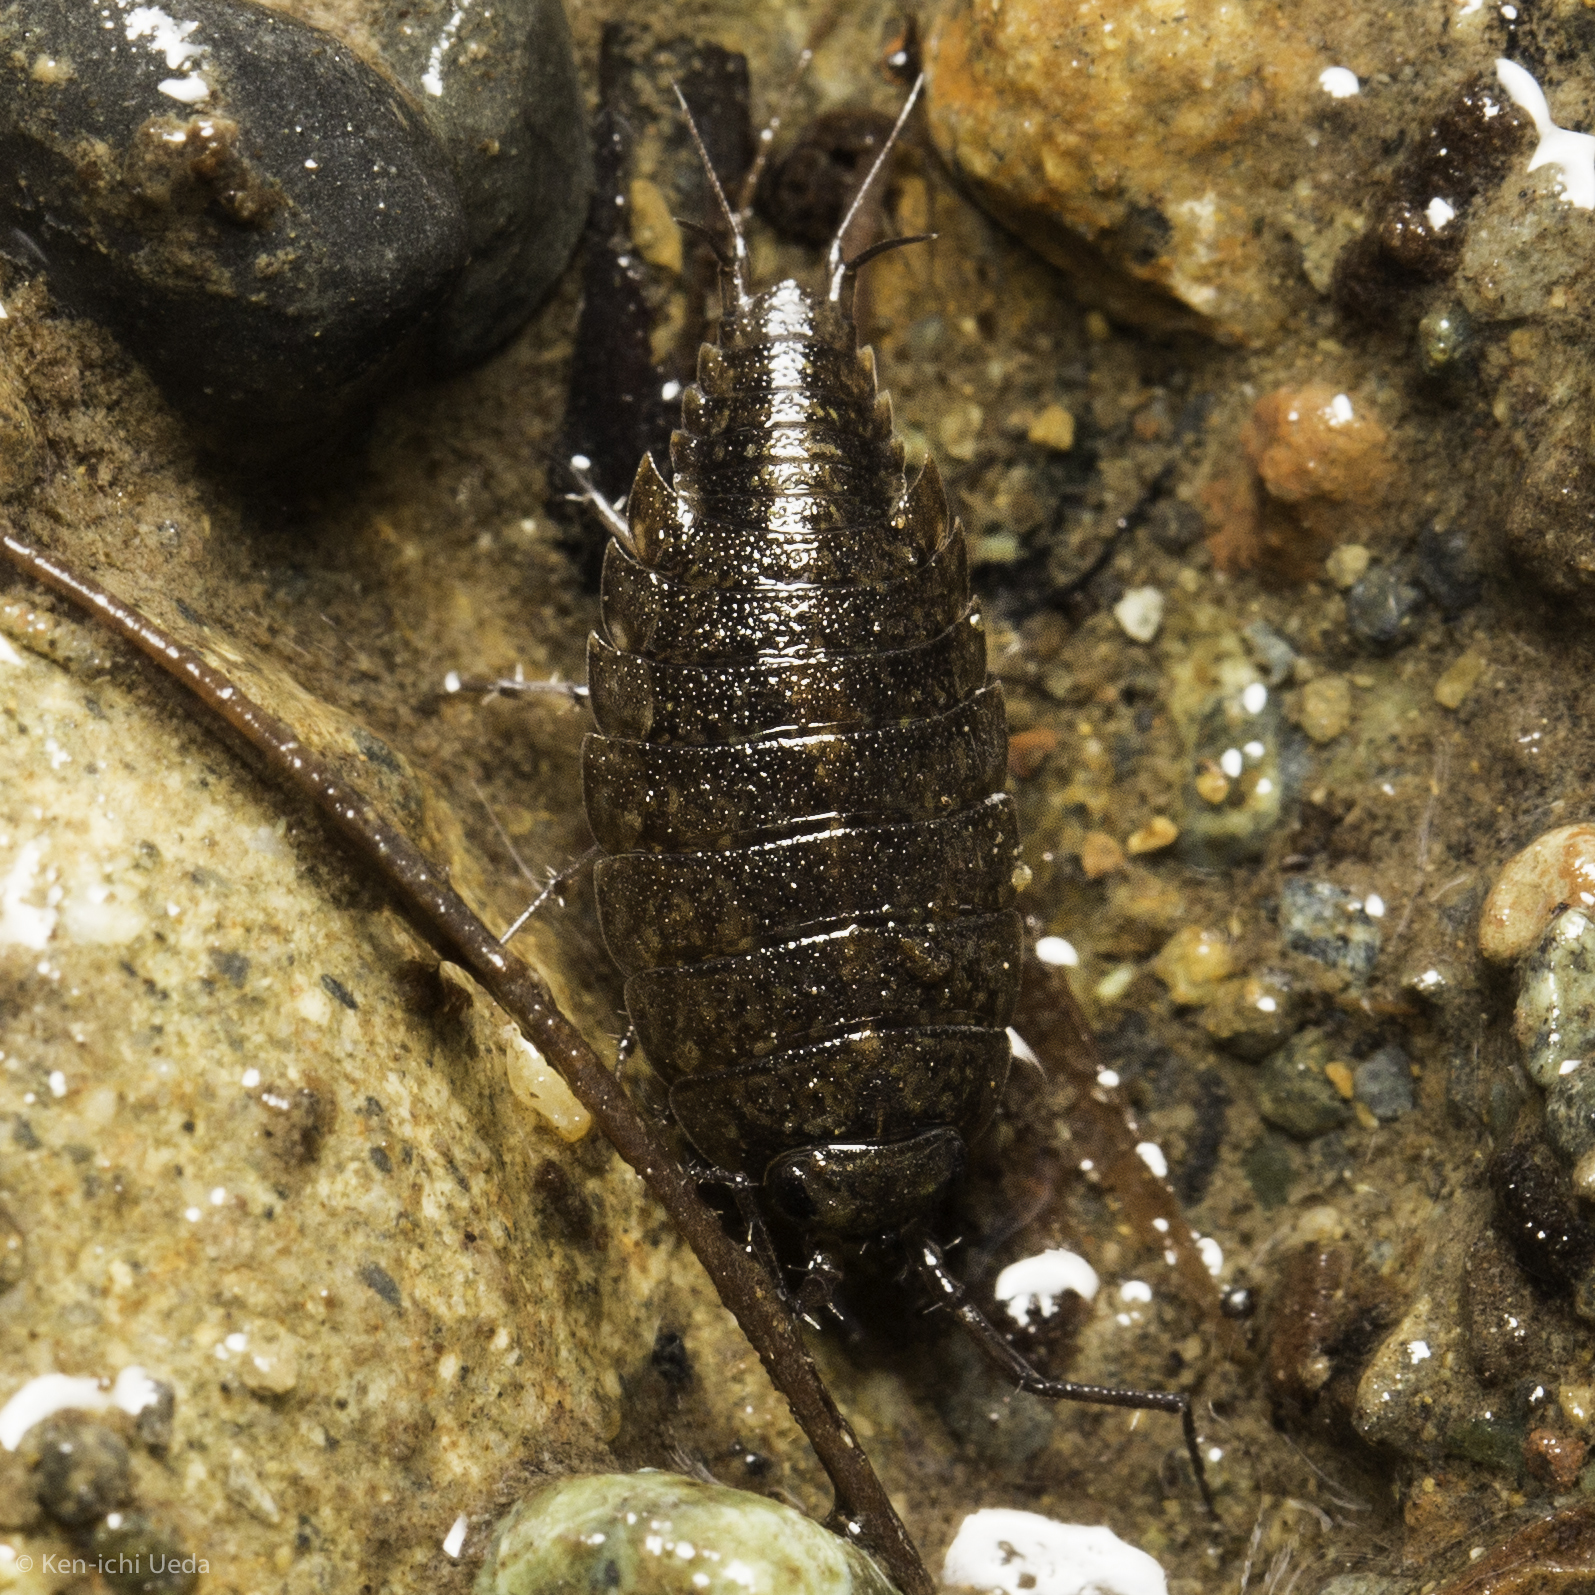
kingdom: Animalia
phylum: Arthropoda
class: Malacostraca
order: Isopoda
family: Ligiidae
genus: Ligidium
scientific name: Ligidium latum
